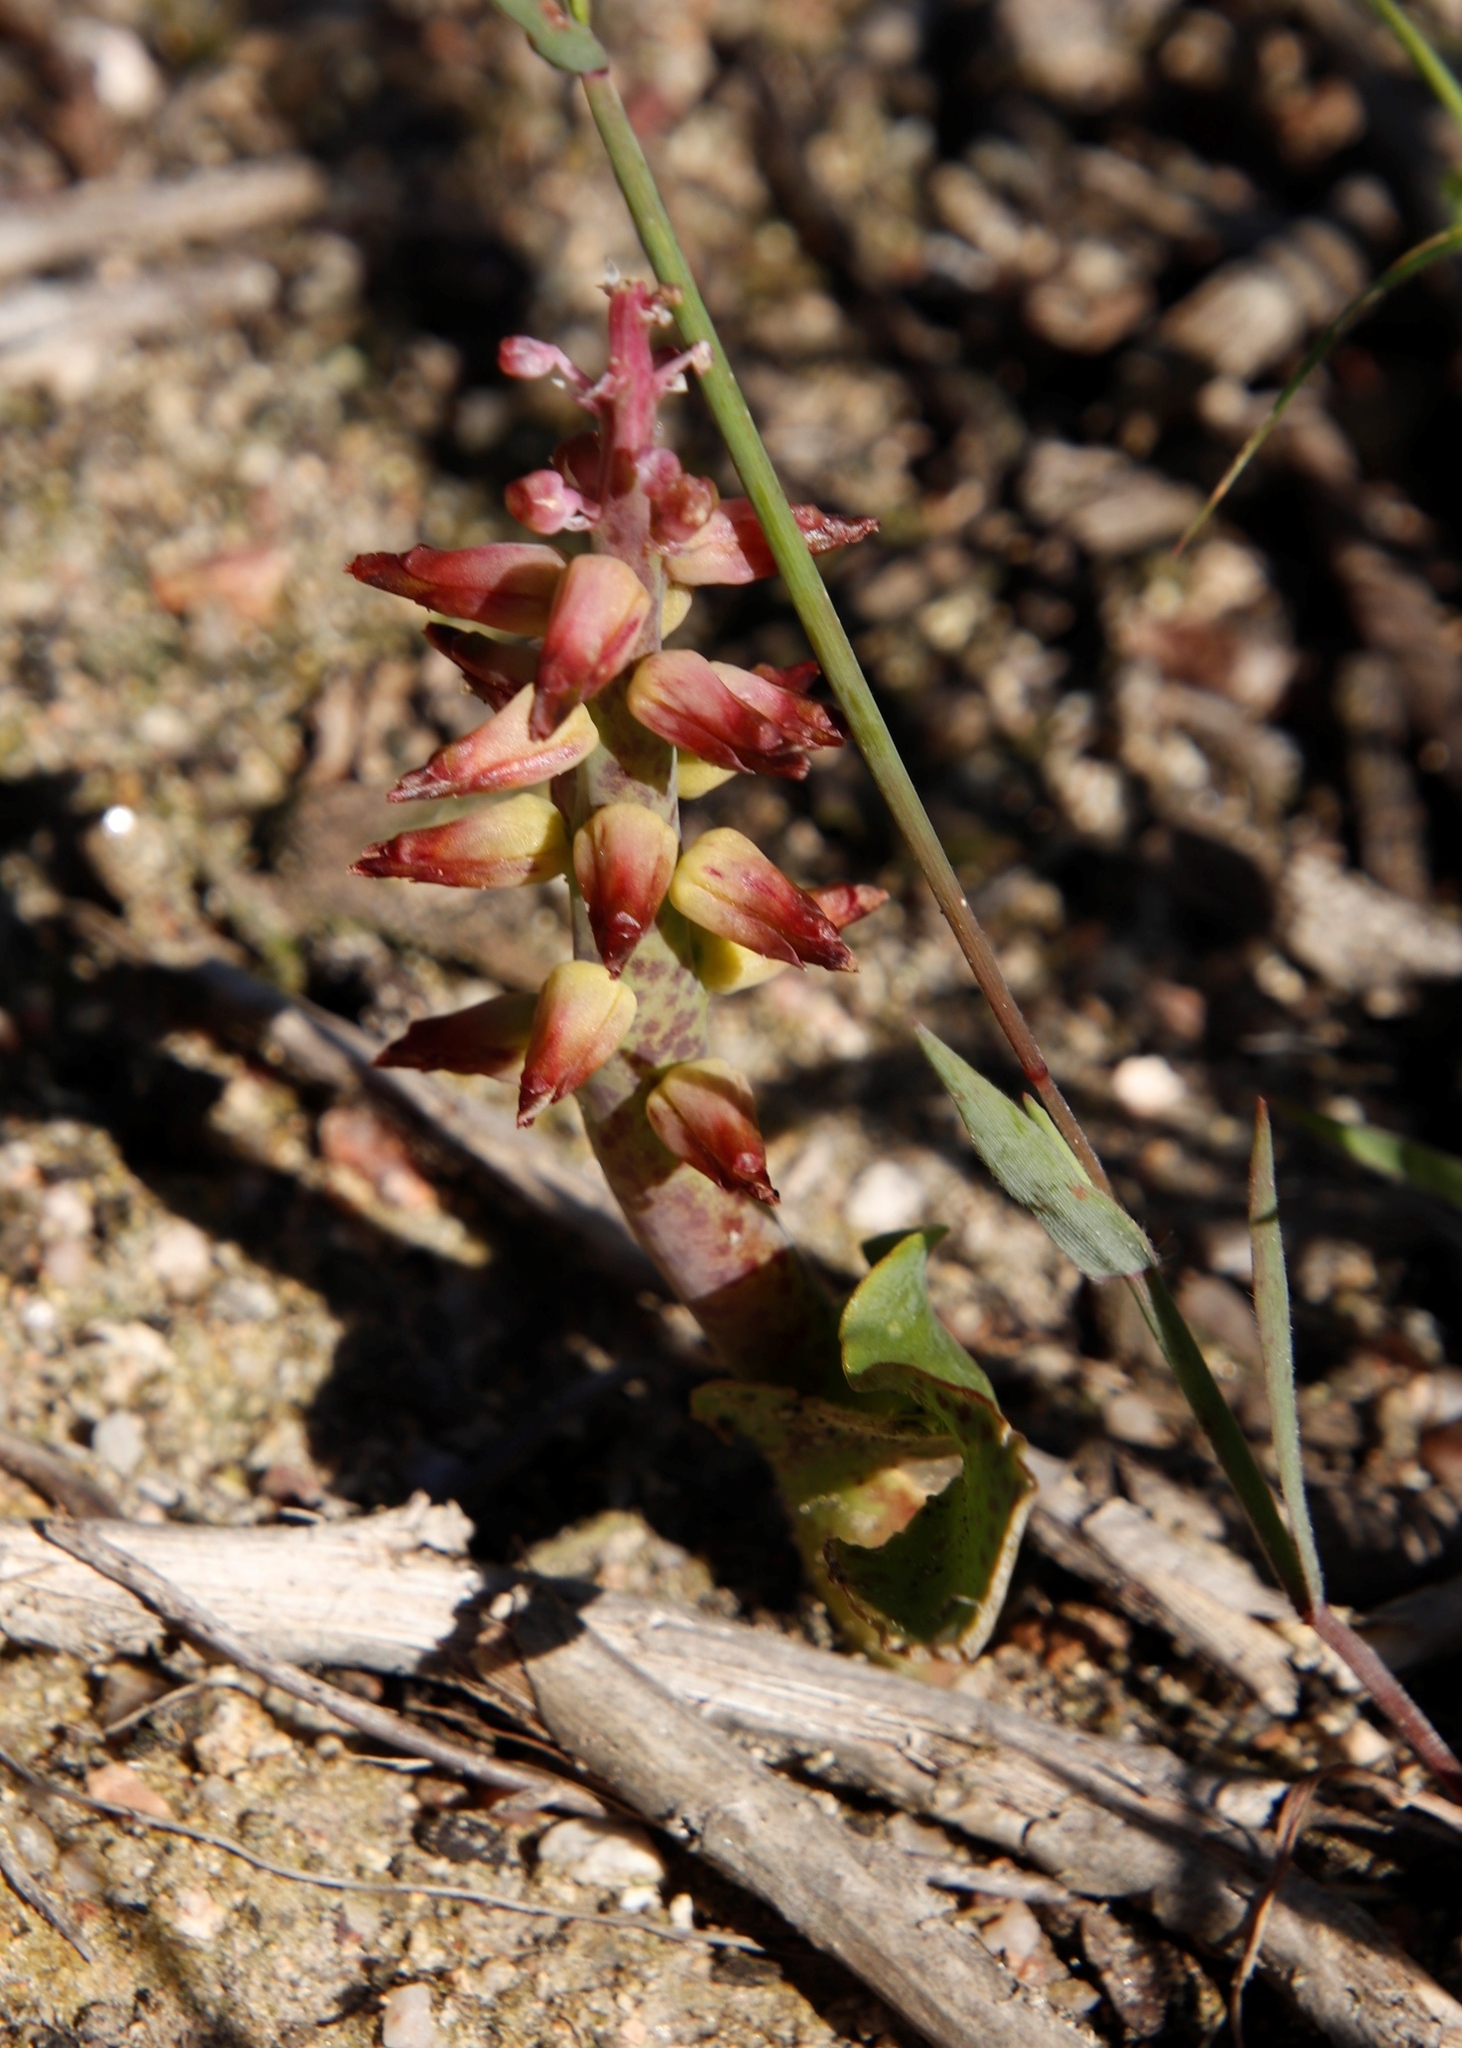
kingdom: Plantae
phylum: Tracheophyta
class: Liliopsida
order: Asparagales
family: Asparagaceae
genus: Lachenalia
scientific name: Lachenalia mutabilis
